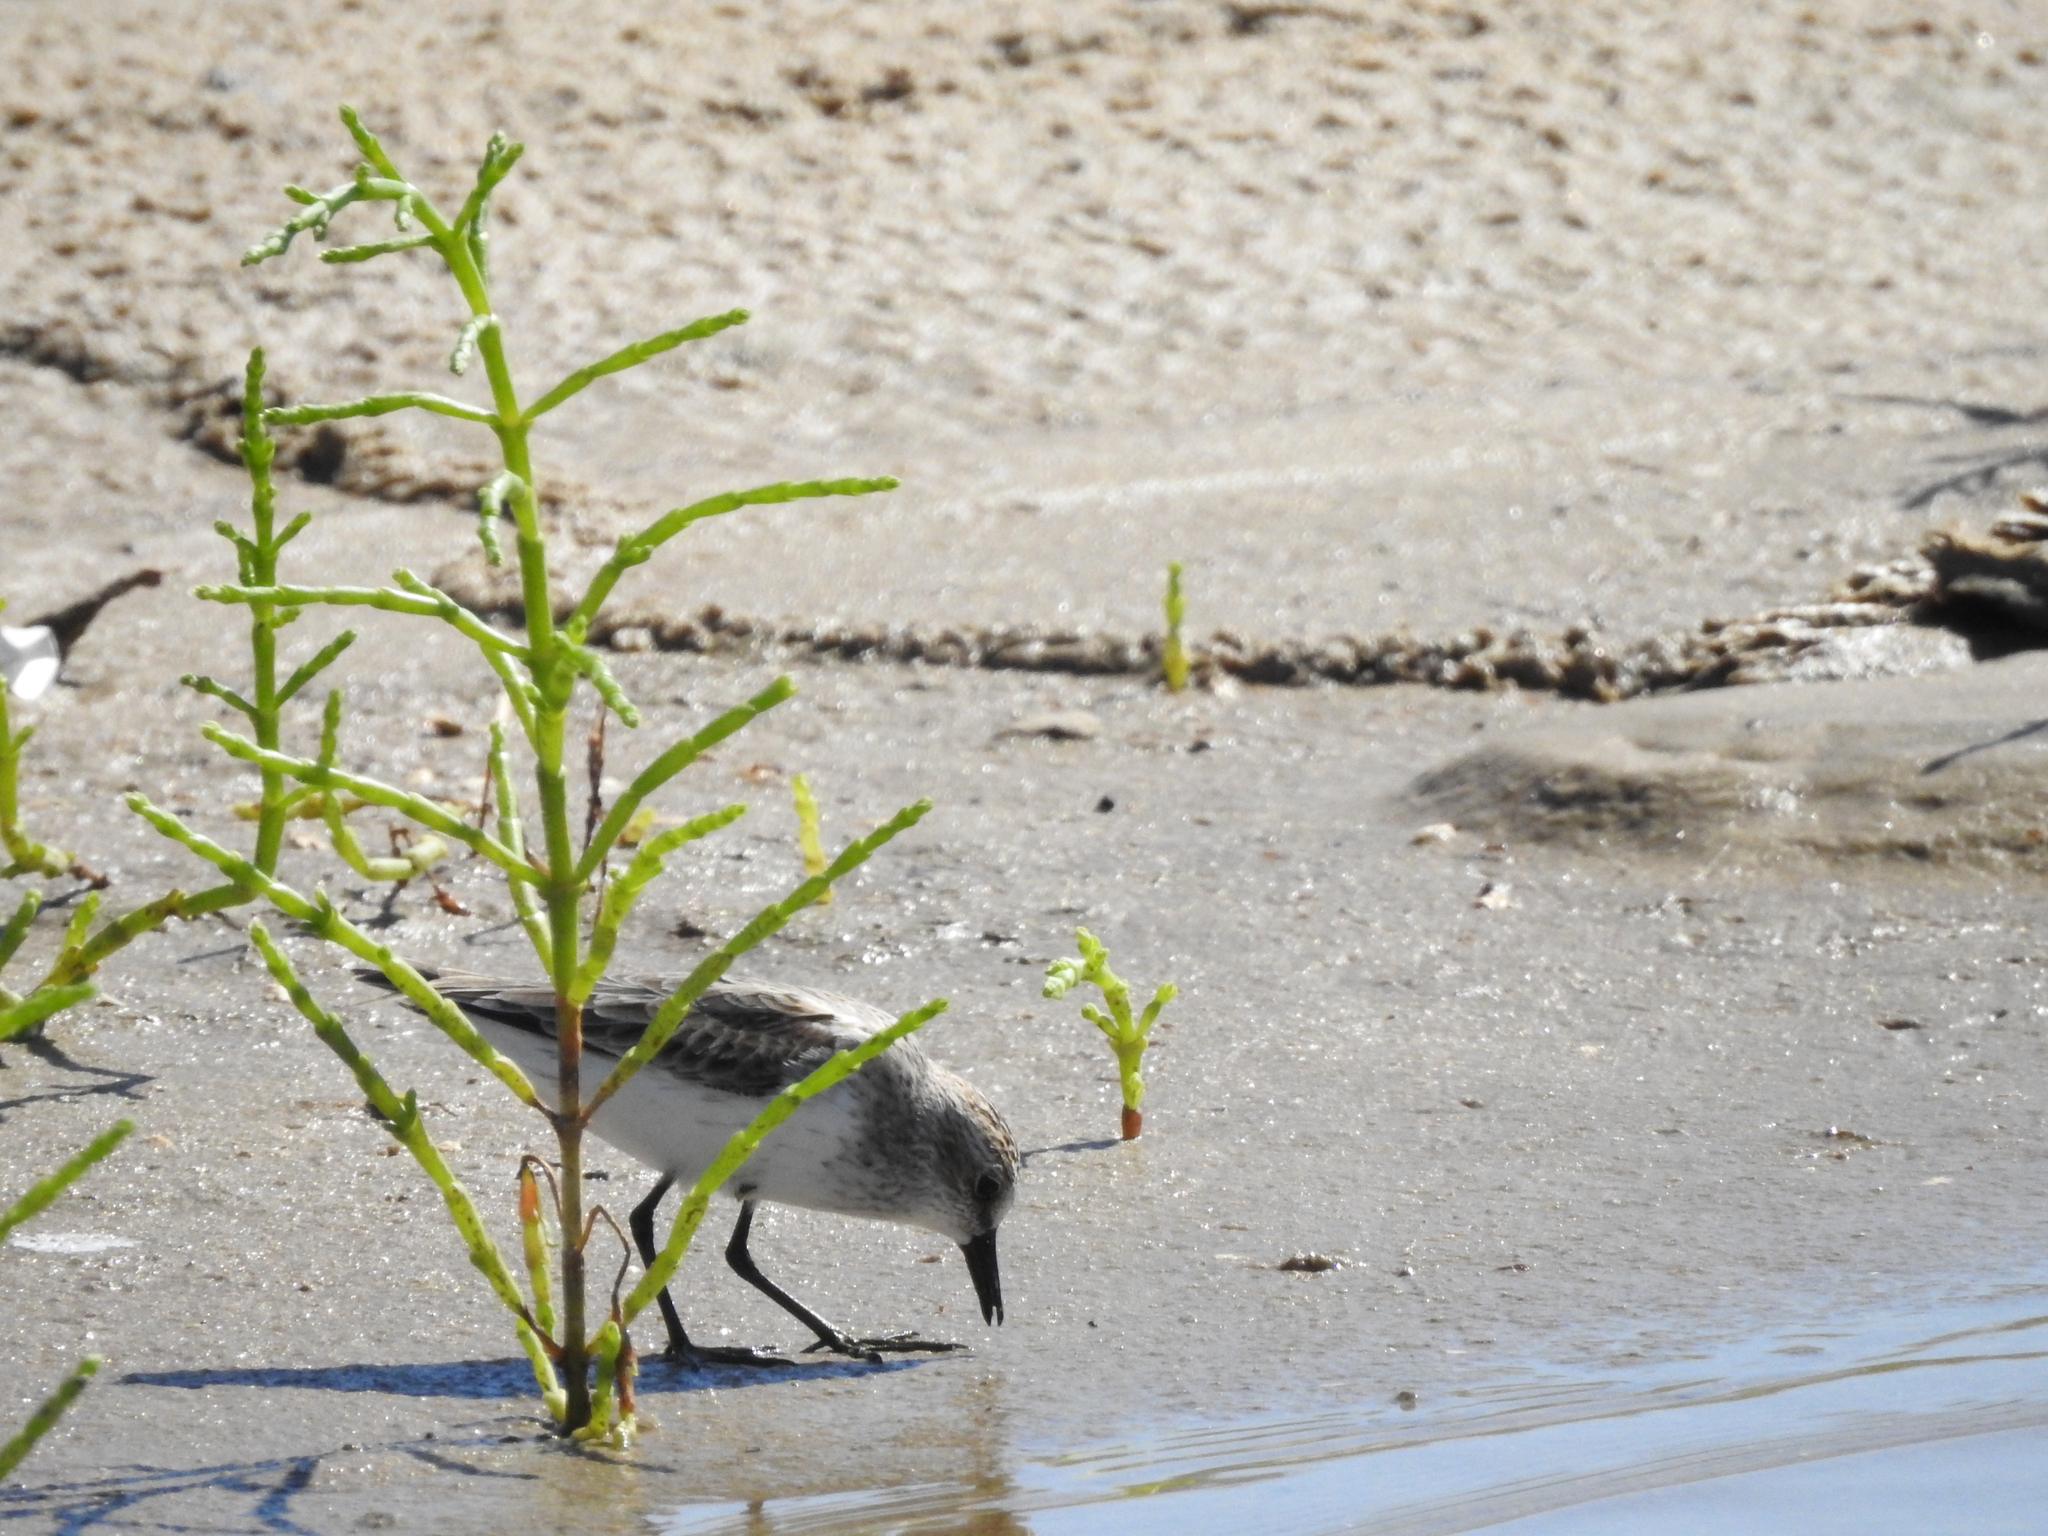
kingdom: Animalia
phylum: Chordata
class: Aves
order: Charadriiformes
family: Scolopacidae
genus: Calidris
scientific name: Calidris pusilla
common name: Semipalmated sandpiper
